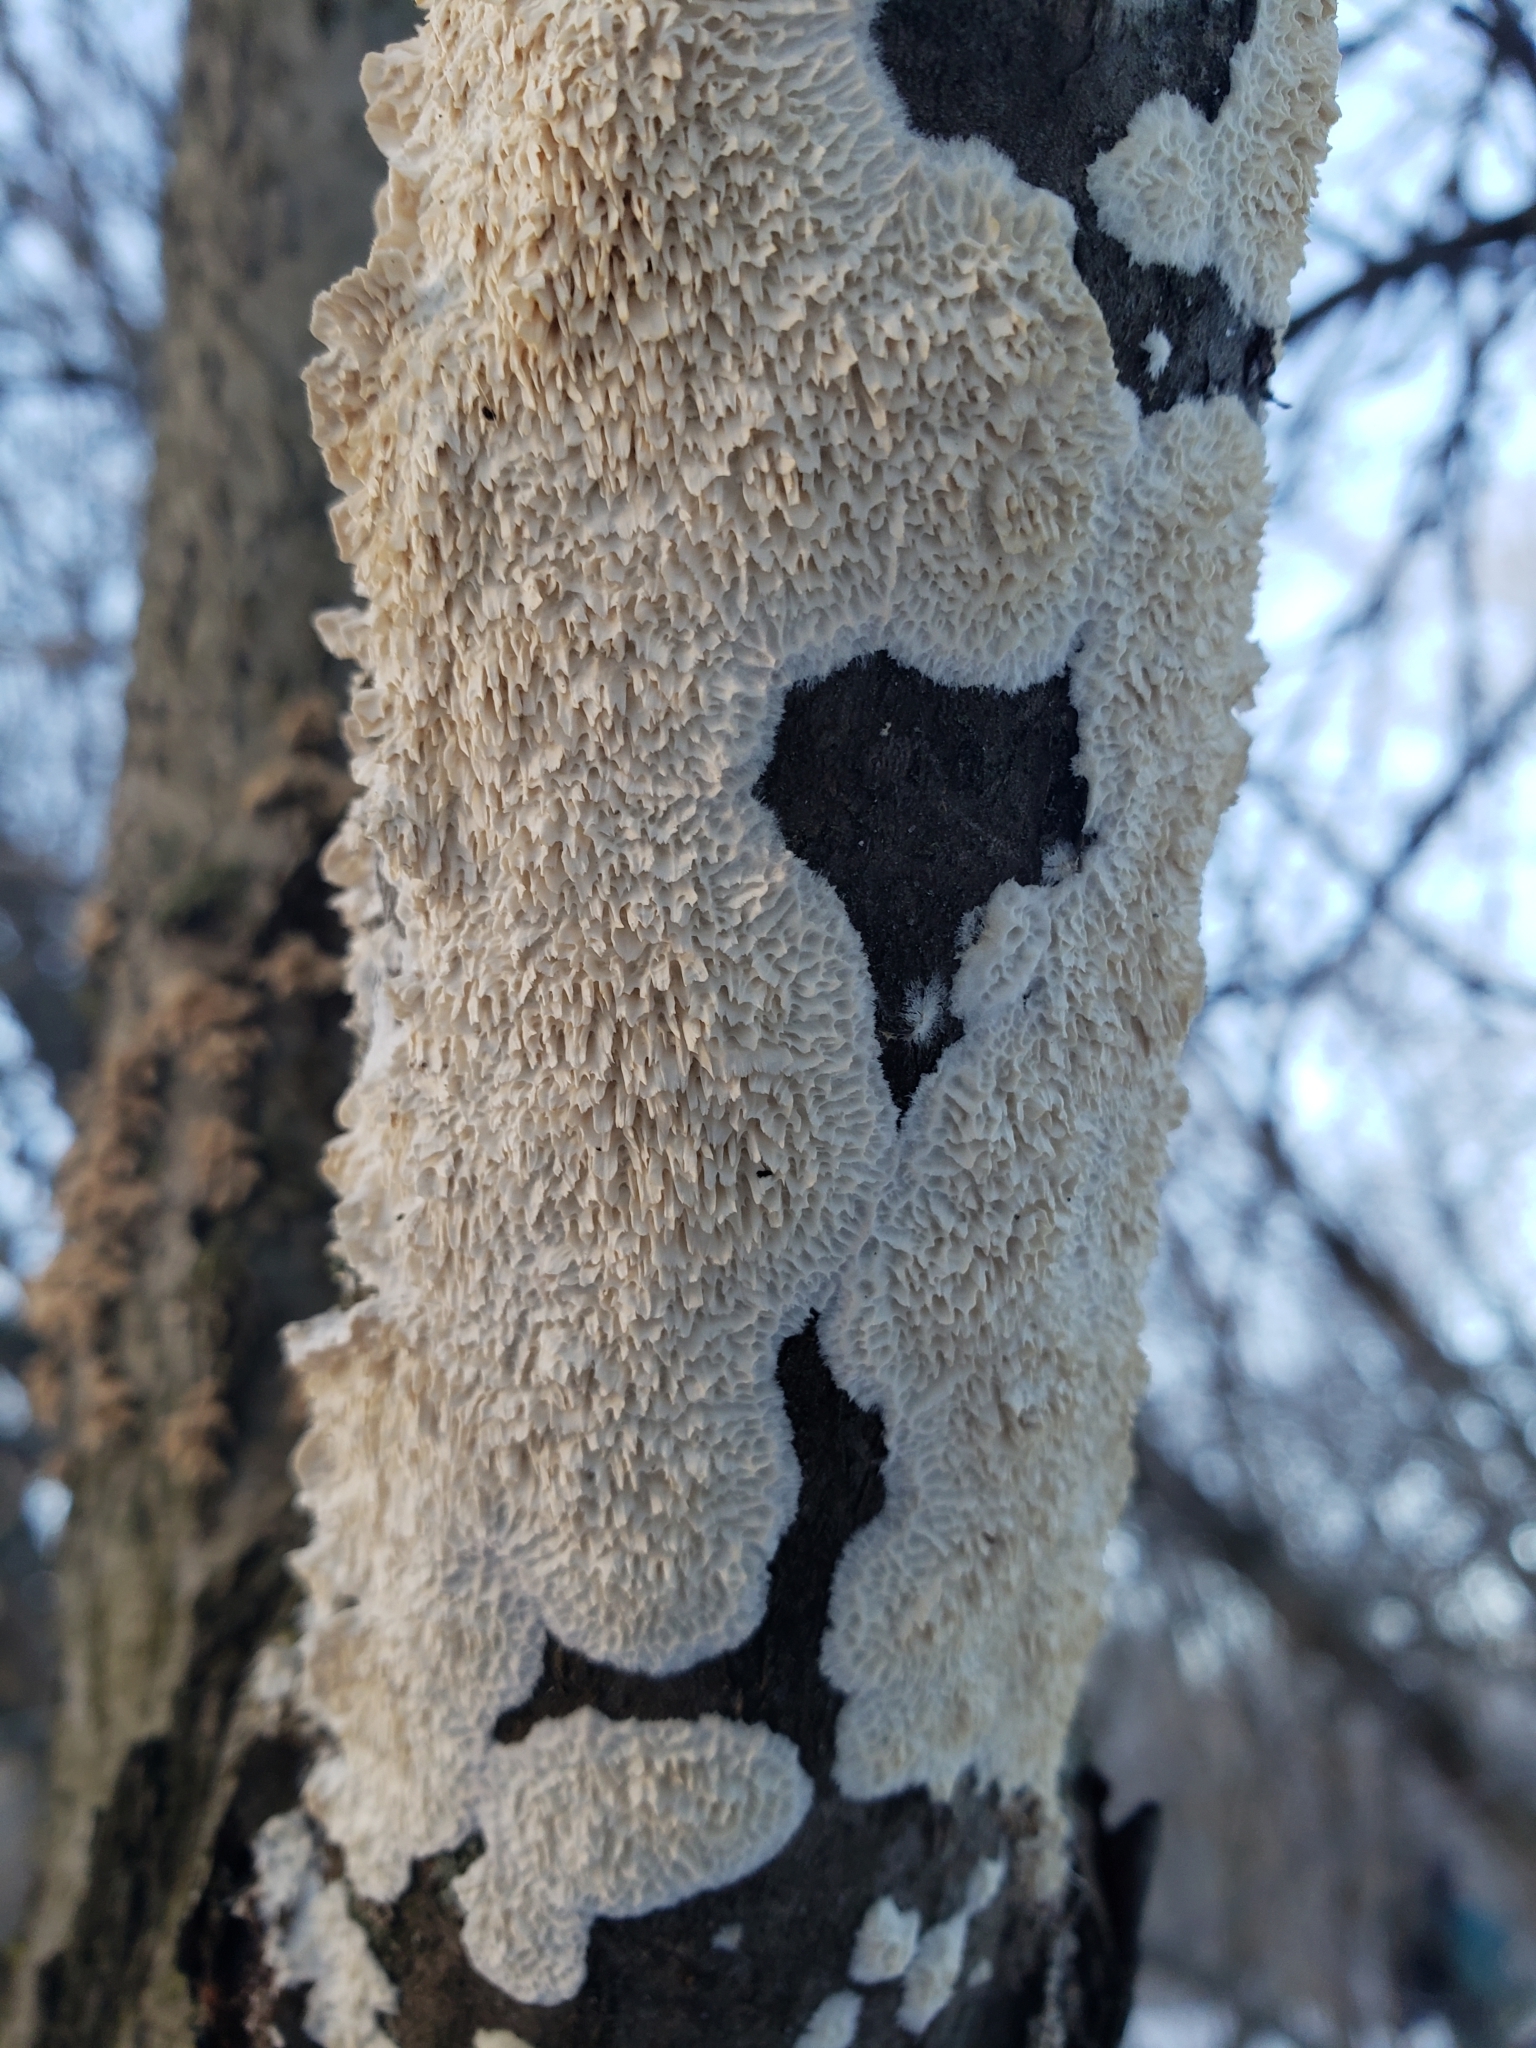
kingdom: Fungi
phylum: Basidiomycota
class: Agaricomycetes
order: Polyporales
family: Irpicaceae
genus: Irpex
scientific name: Irpex lacteus
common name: Milk-white toothed polypore
